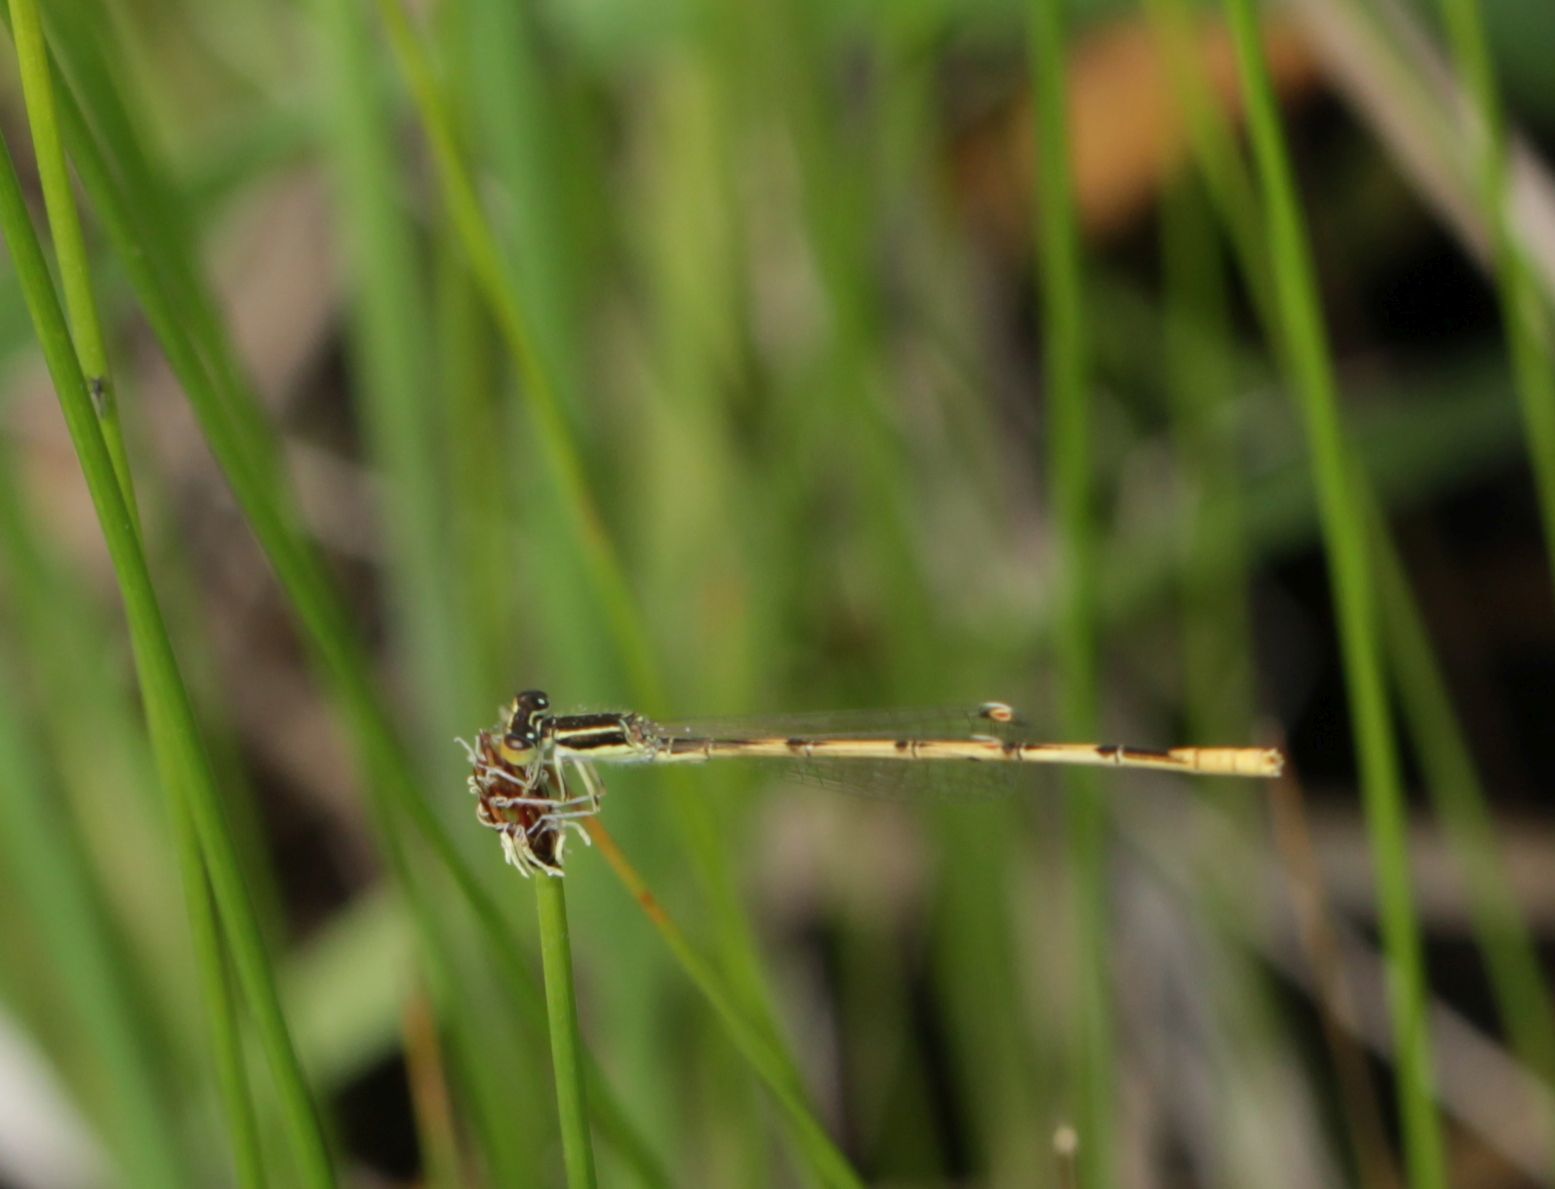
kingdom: Animalia
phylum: Arthropoda
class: Insecta
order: Odonata
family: Coenagrionidae
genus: Ischnura
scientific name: Ischnura hastata
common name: Citrine forktail
